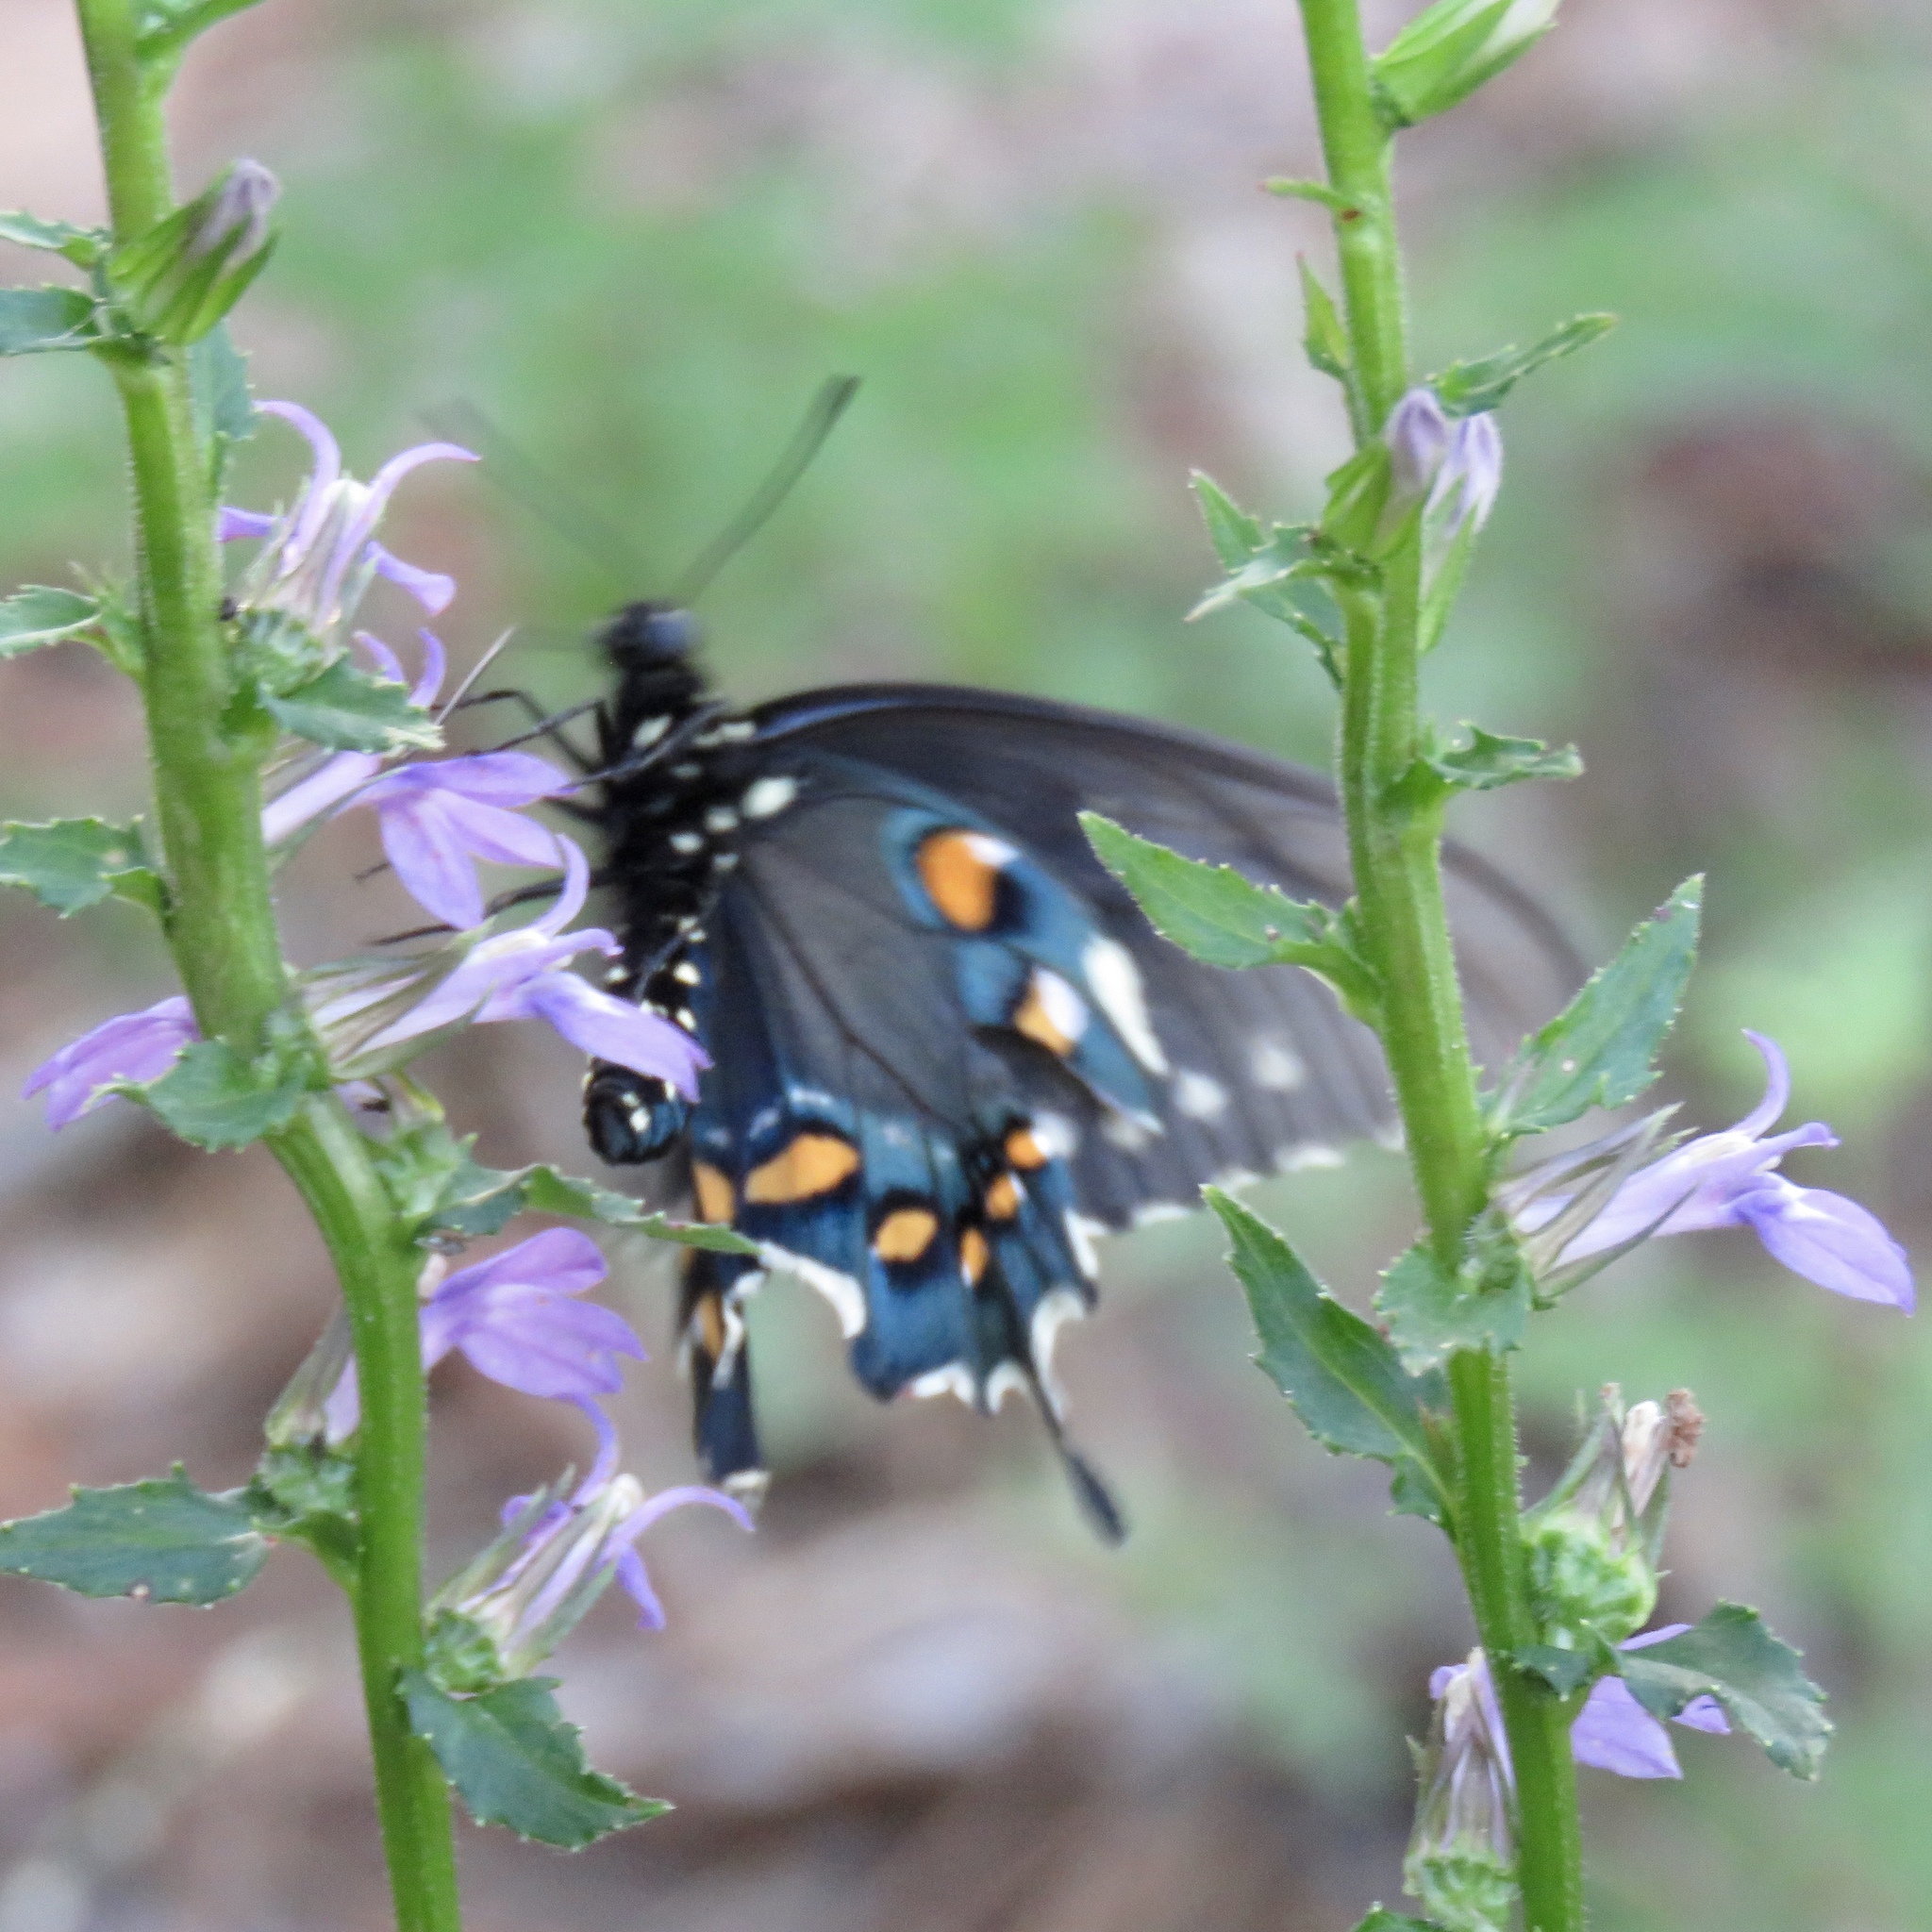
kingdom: Animalia
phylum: Arthropoda
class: Insecta
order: Lepidoptera
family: Papilionidae
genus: Battus
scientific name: Battus philenor
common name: Pipevine swallowtail
